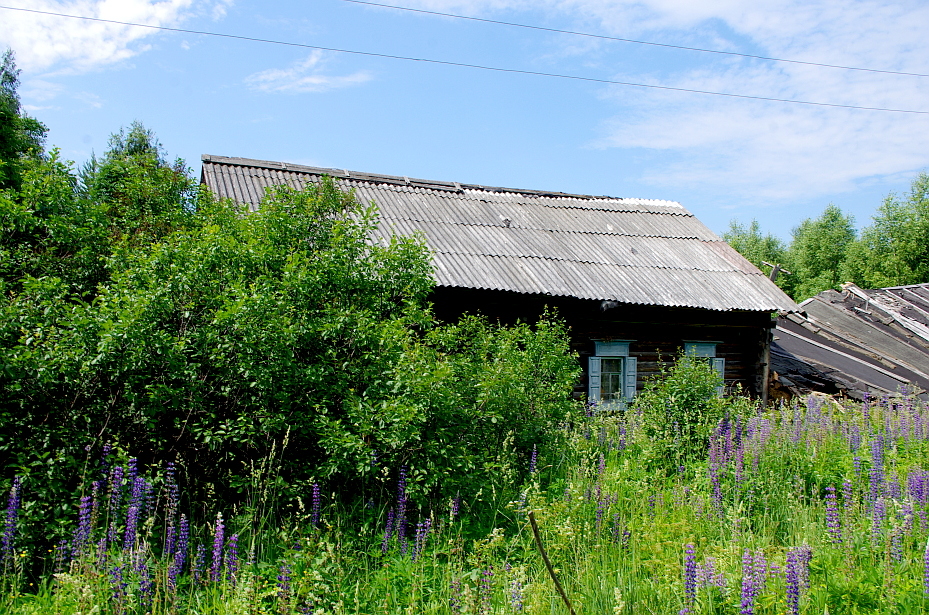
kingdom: Plantae
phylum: Tracheophyta
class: Magnoliopsida
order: Fabales
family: Fabaceae
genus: Lupinus
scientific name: Lupinus polyphyllus
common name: Garden lupin
